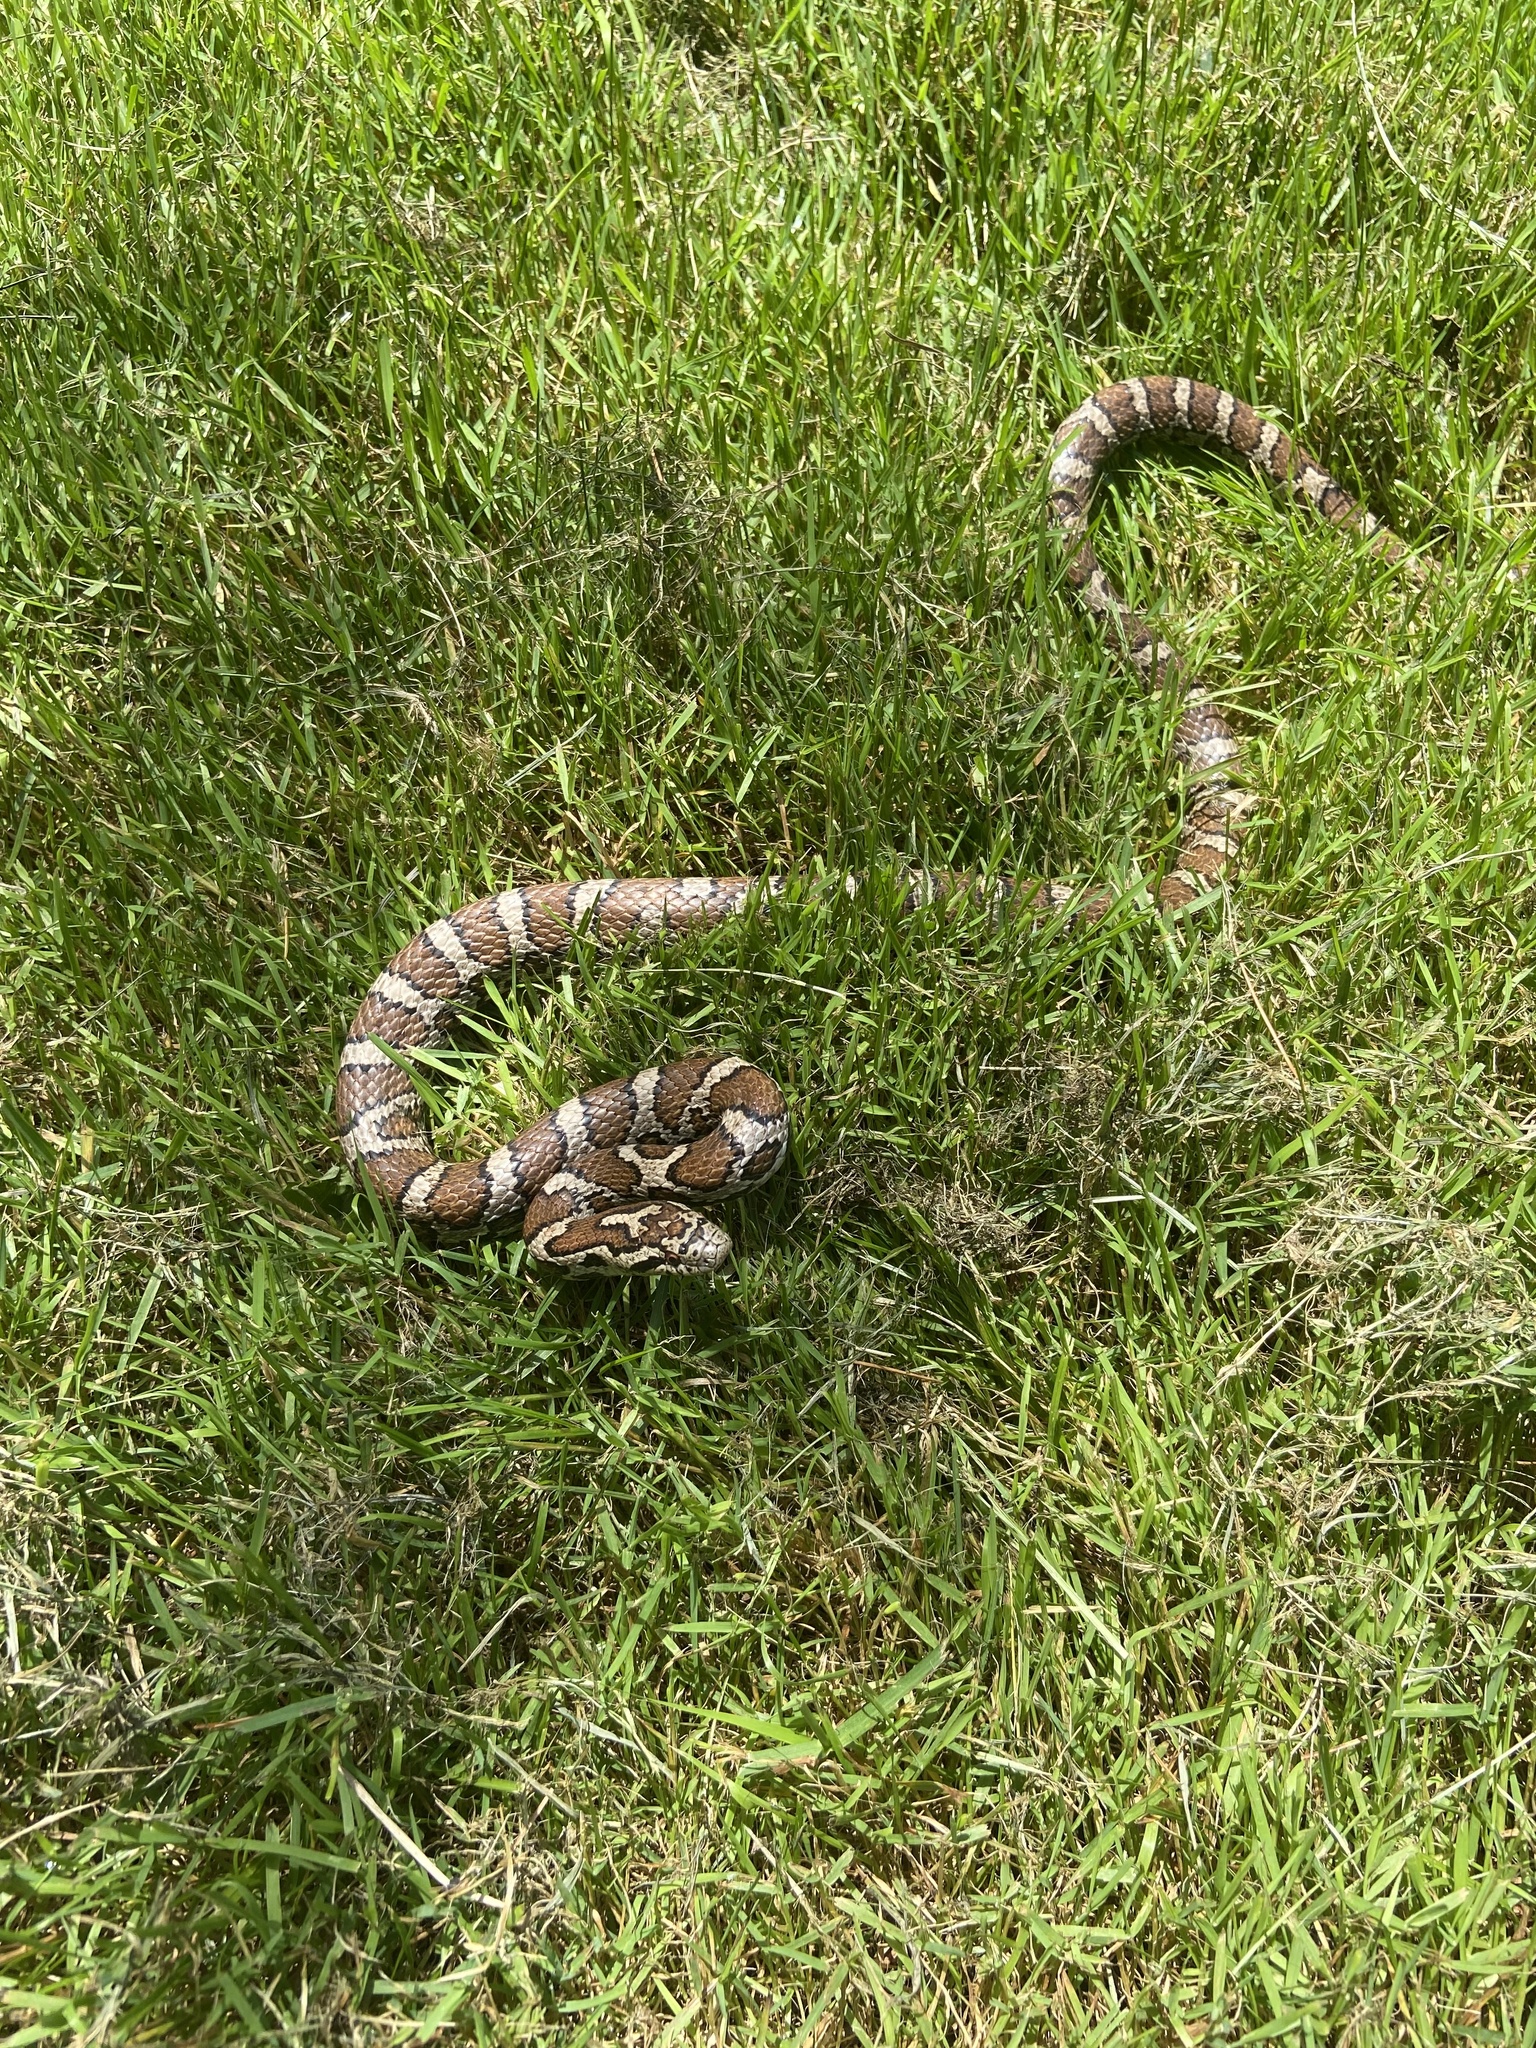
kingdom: Animalia
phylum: Chordata
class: Squamata
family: Colubridae
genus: Lampropeltis
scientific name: Lampropeltis triangulum
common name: Eastern milksnake
